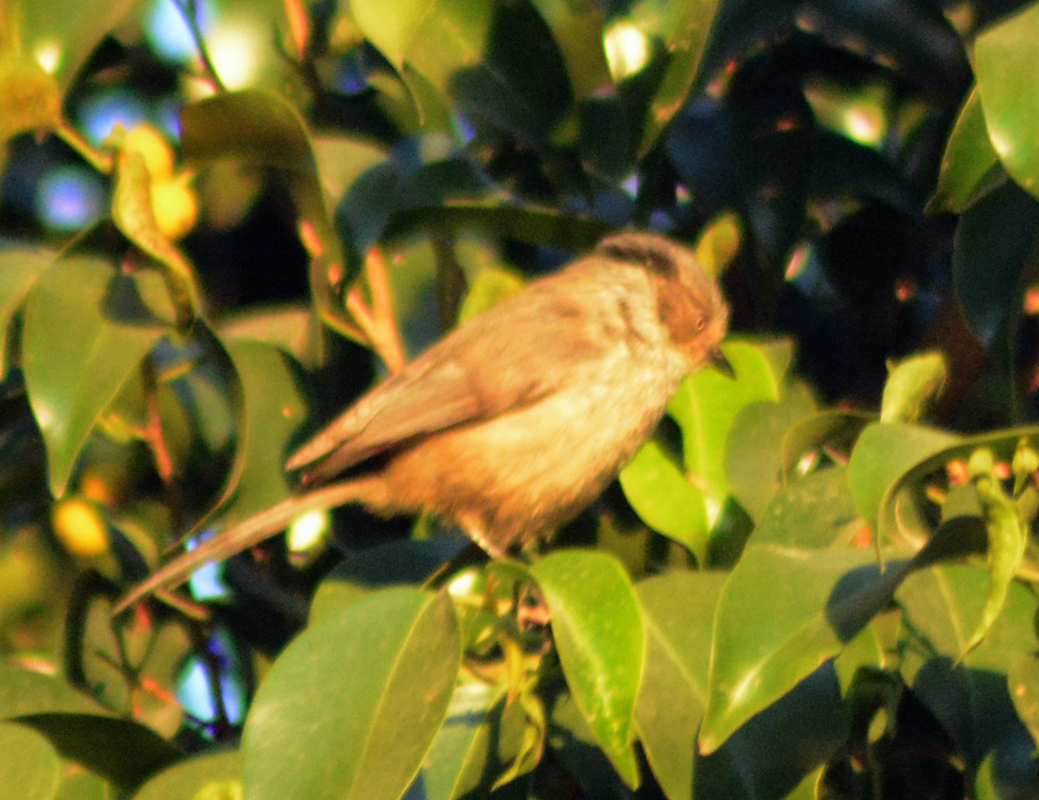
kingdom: Animalia
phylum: Chordata
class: Aves
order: Passeriformes
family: Aegithalidae
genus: Psaltriparus
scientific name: Psaltriparus minimus
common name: American bushtit
